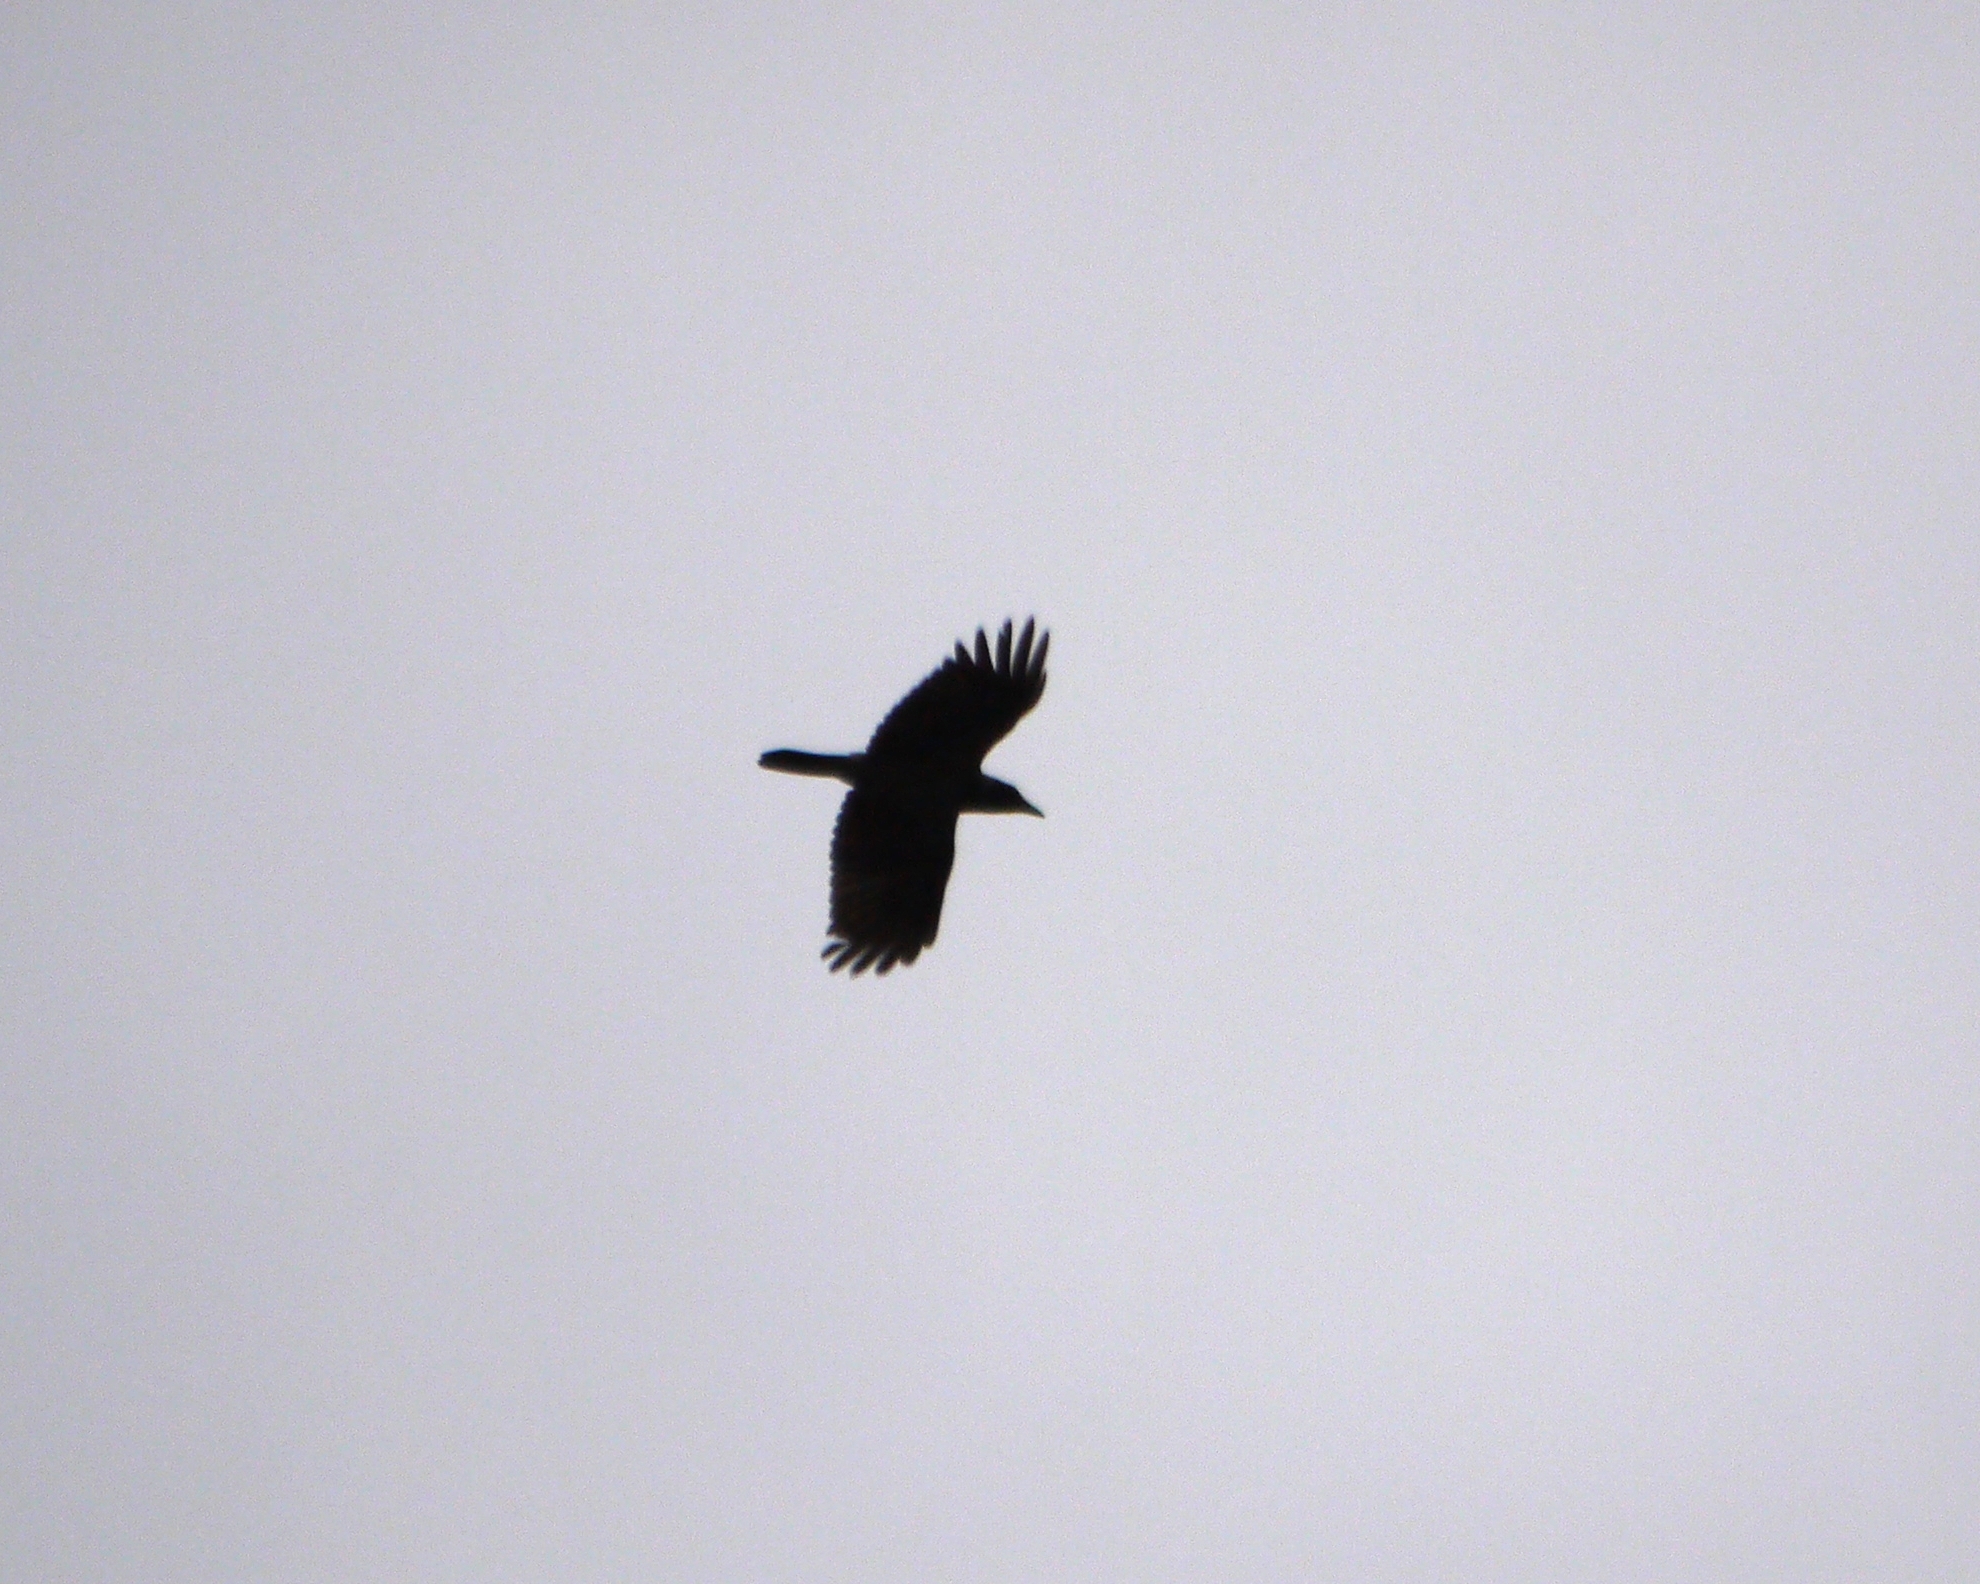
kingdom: Animalia
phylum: Chordata
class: Aves
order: Passeriformes
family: Corvidae
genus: Corvus
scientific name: Corvus cornix
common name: Hooded crow
